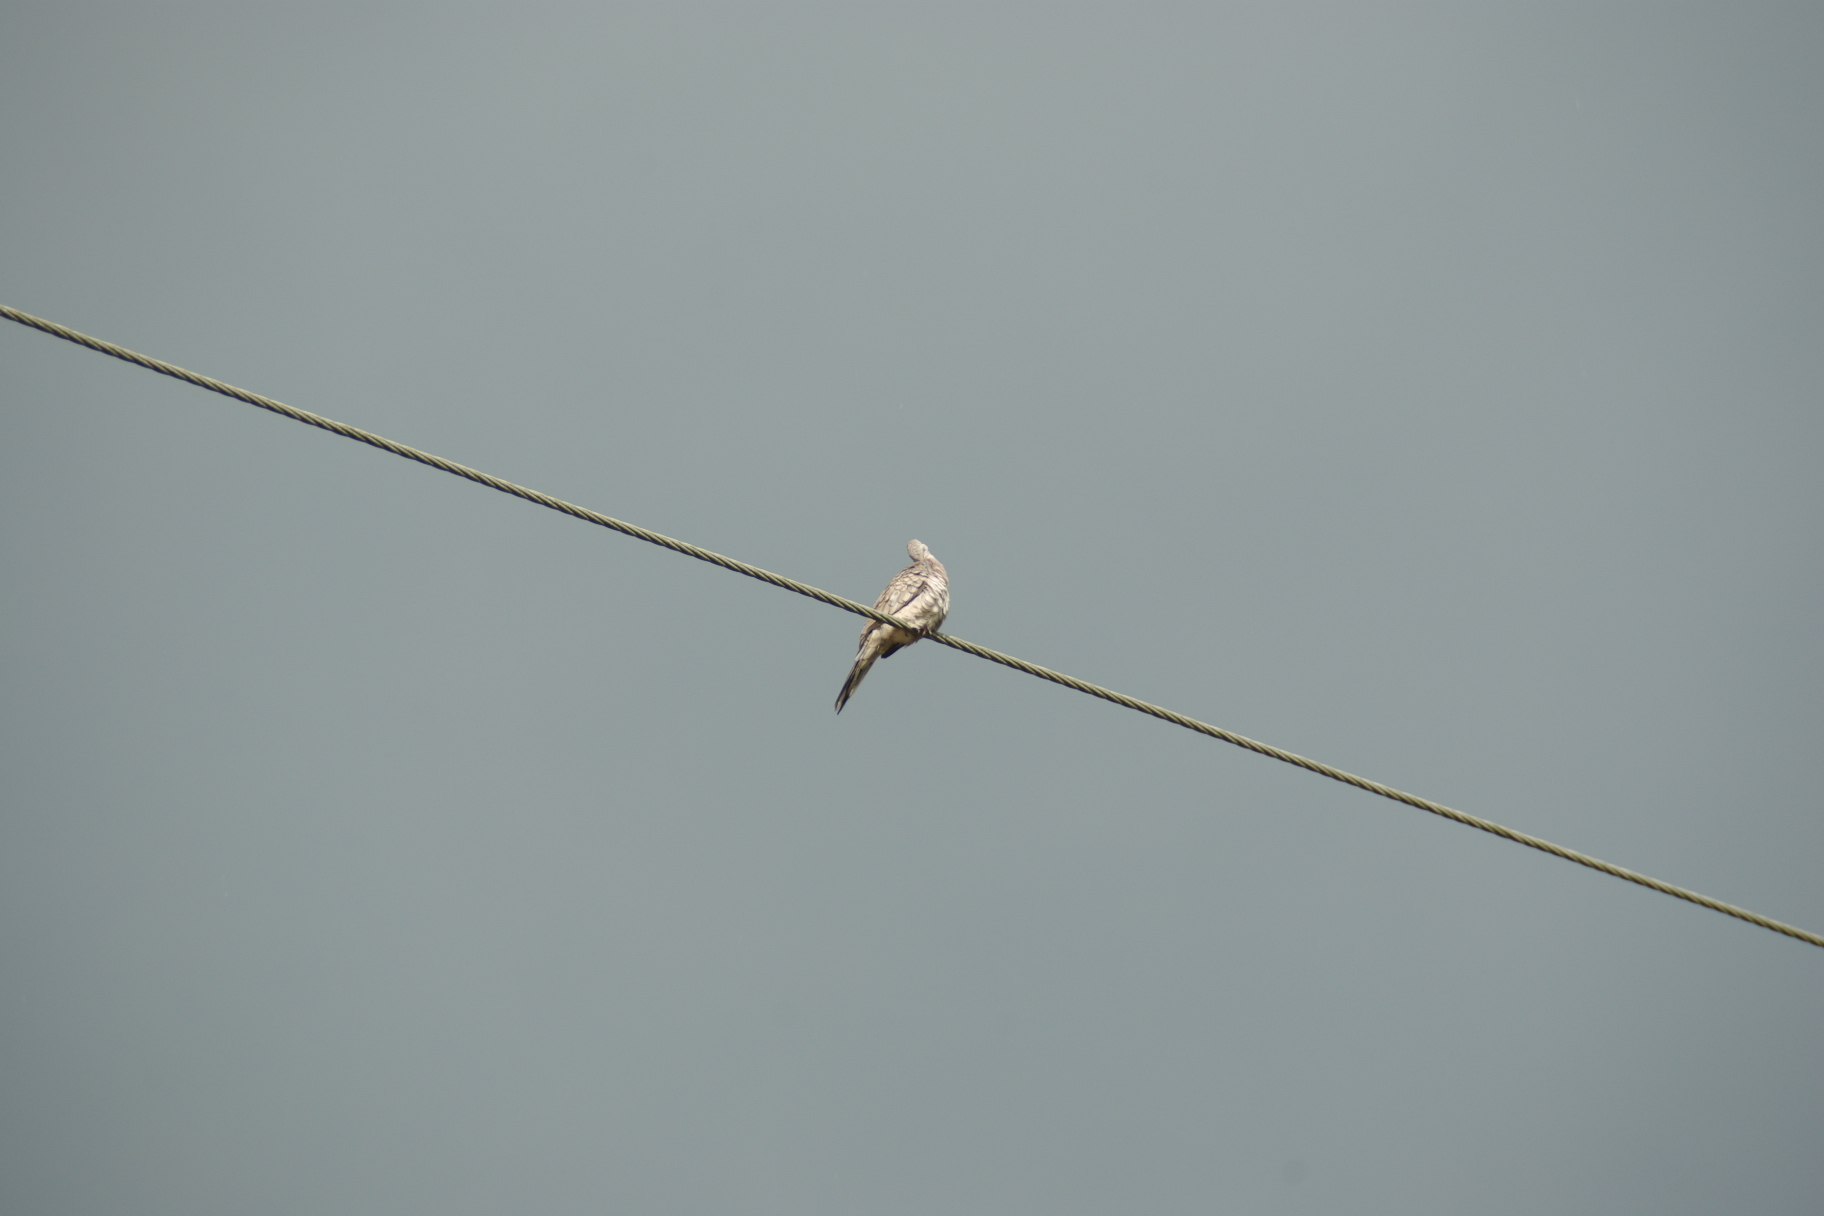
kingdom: Animalia
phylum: Chordata
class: Aves
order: Columbiformes
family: Columbidae
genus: Columbina
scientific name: Columbina inca
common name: Inca dove
